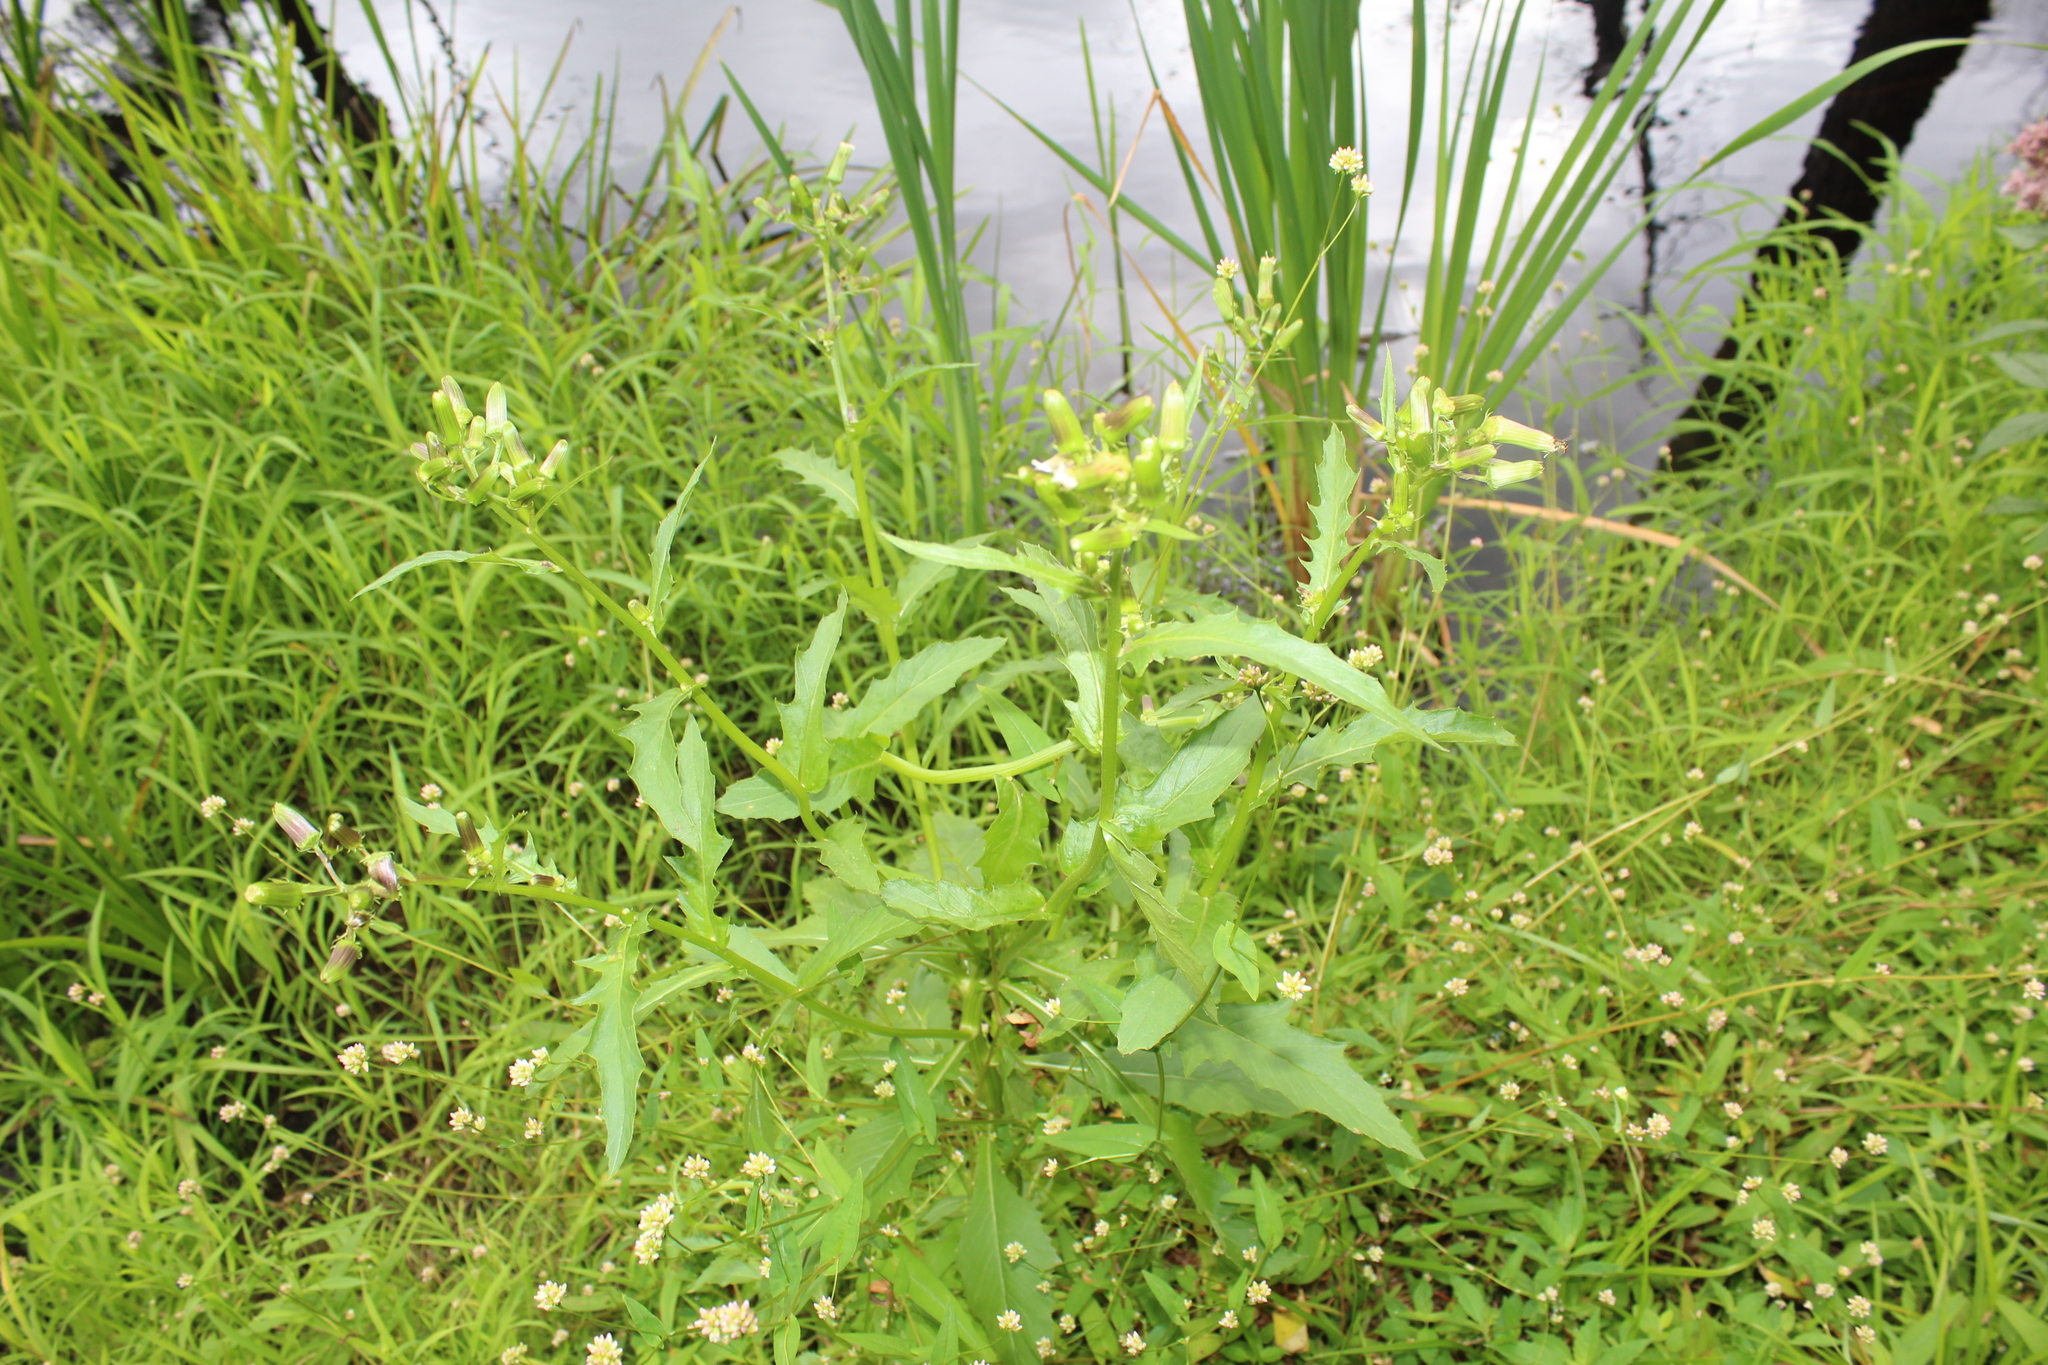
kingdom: Plantae
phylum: Tracheophyta
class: Magnoliopsida
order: Asterales
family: Asteraceae
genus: Erechtites
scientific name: Erechtites hieraciifolius
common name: American burnweed
